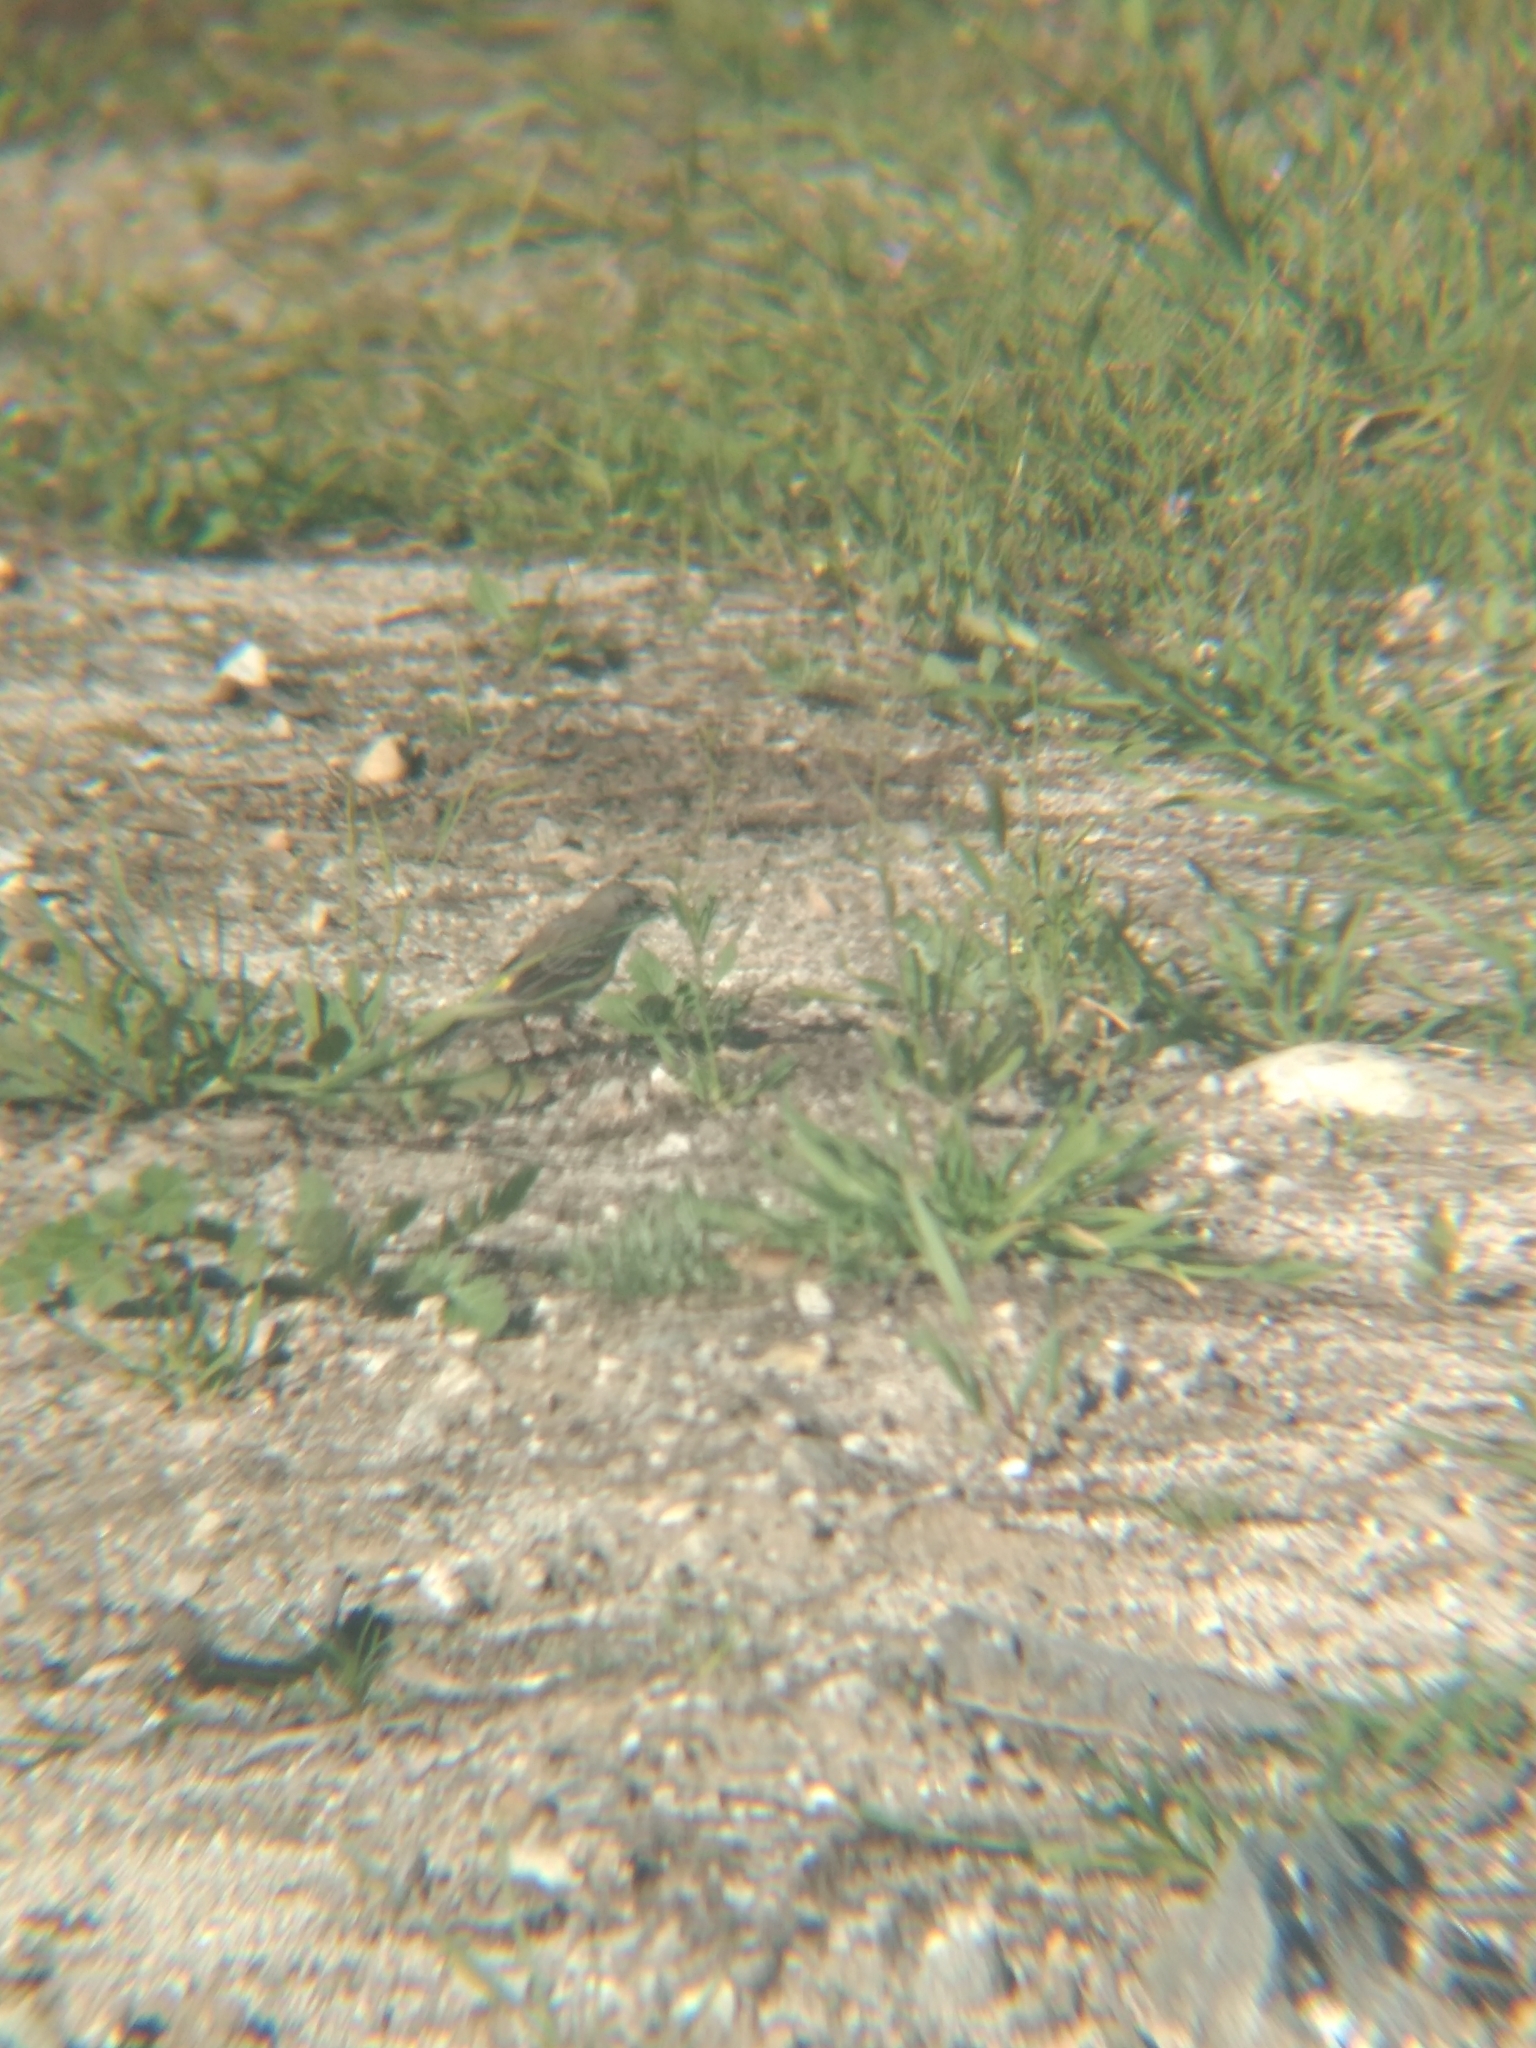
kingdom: Animalia
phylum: Chordata
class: Aves
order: Passeriformes
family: Parulidae
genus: Setophaga
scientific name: Setophaga coronata
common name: Myrtle warbler
